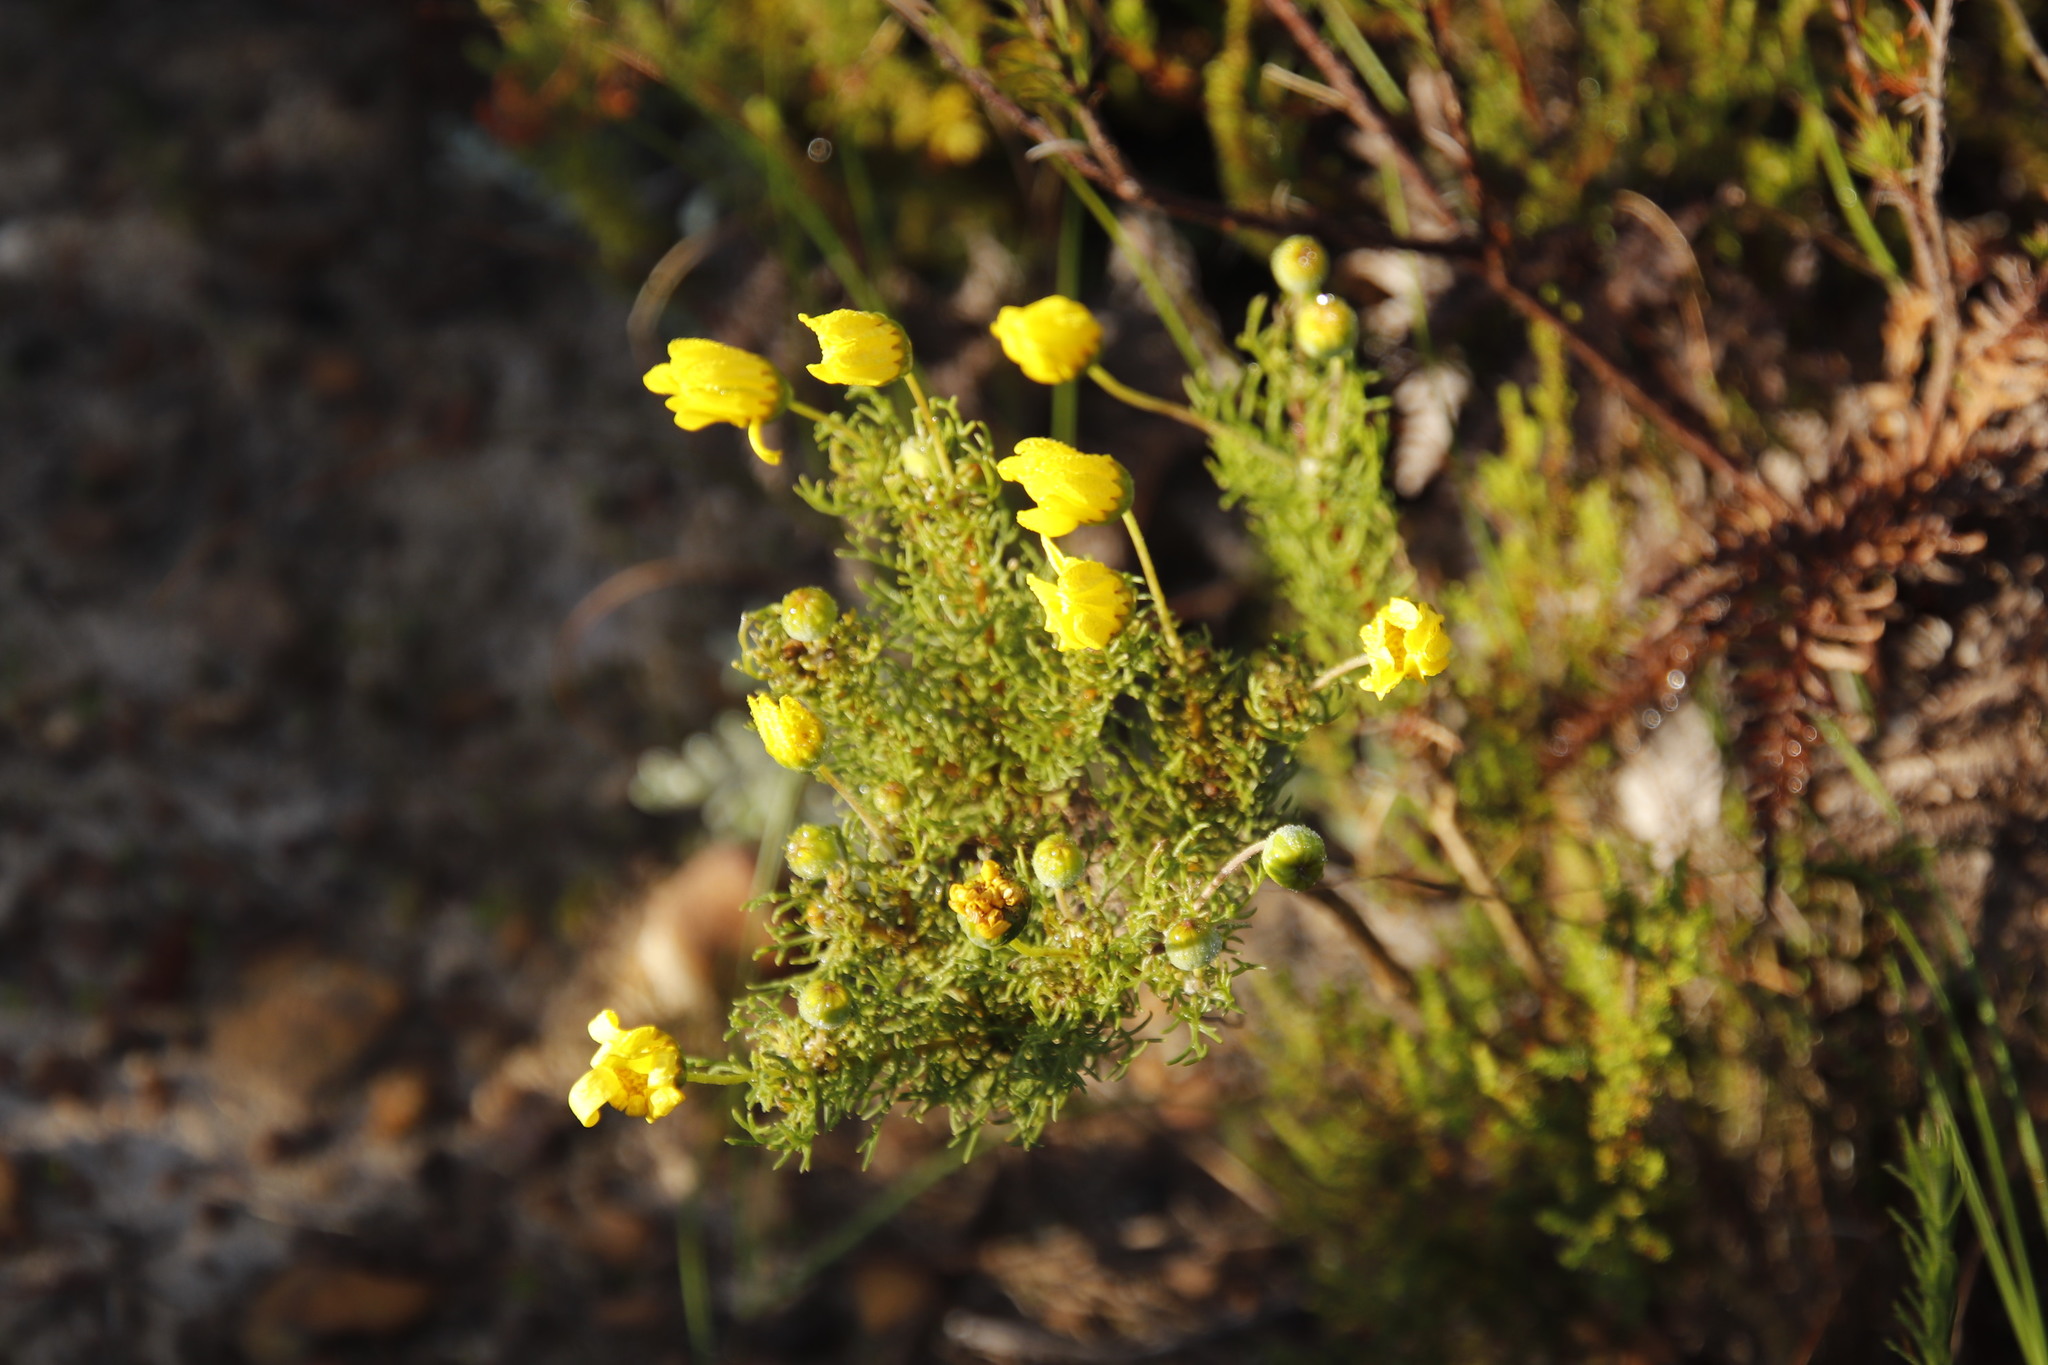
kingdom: Plantae
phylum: Tracheophyta
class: Magnoliopsida
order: Asterales
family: Asteraceae
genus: Euryops
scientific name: Euryops abrotanifolius
